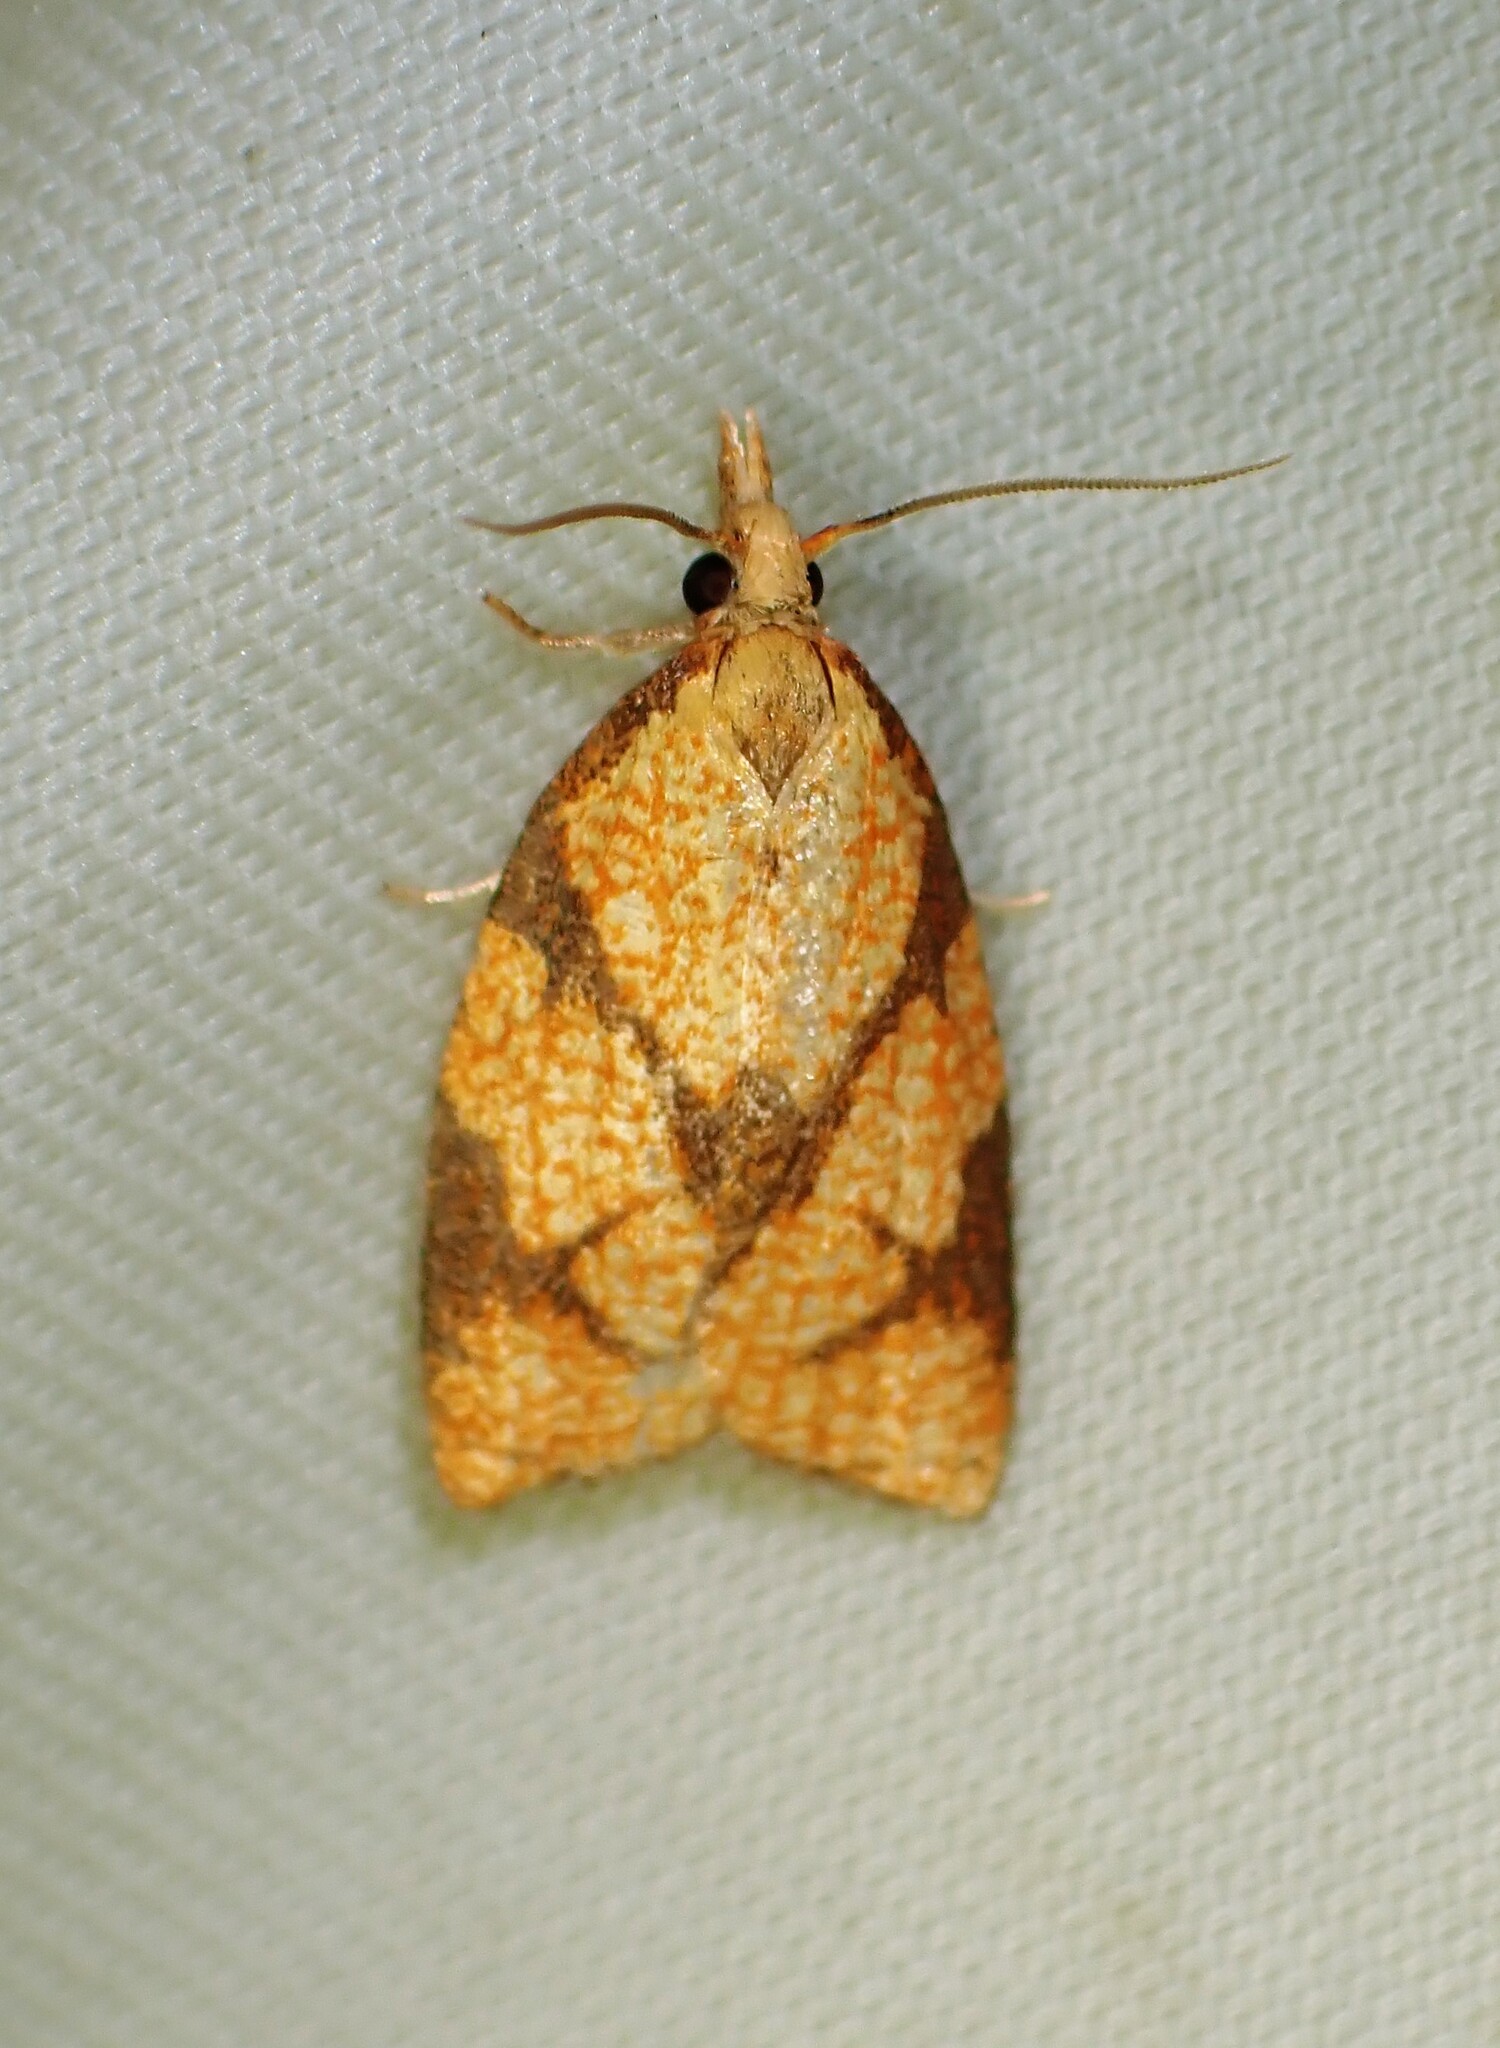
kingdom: Animalia
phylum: Arthropoda
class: Insecta
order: Lepidoptera
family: Tortricidae
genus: Cenopis
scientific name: Cenopis reticulatana
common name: Reticulated fruitworm moth
